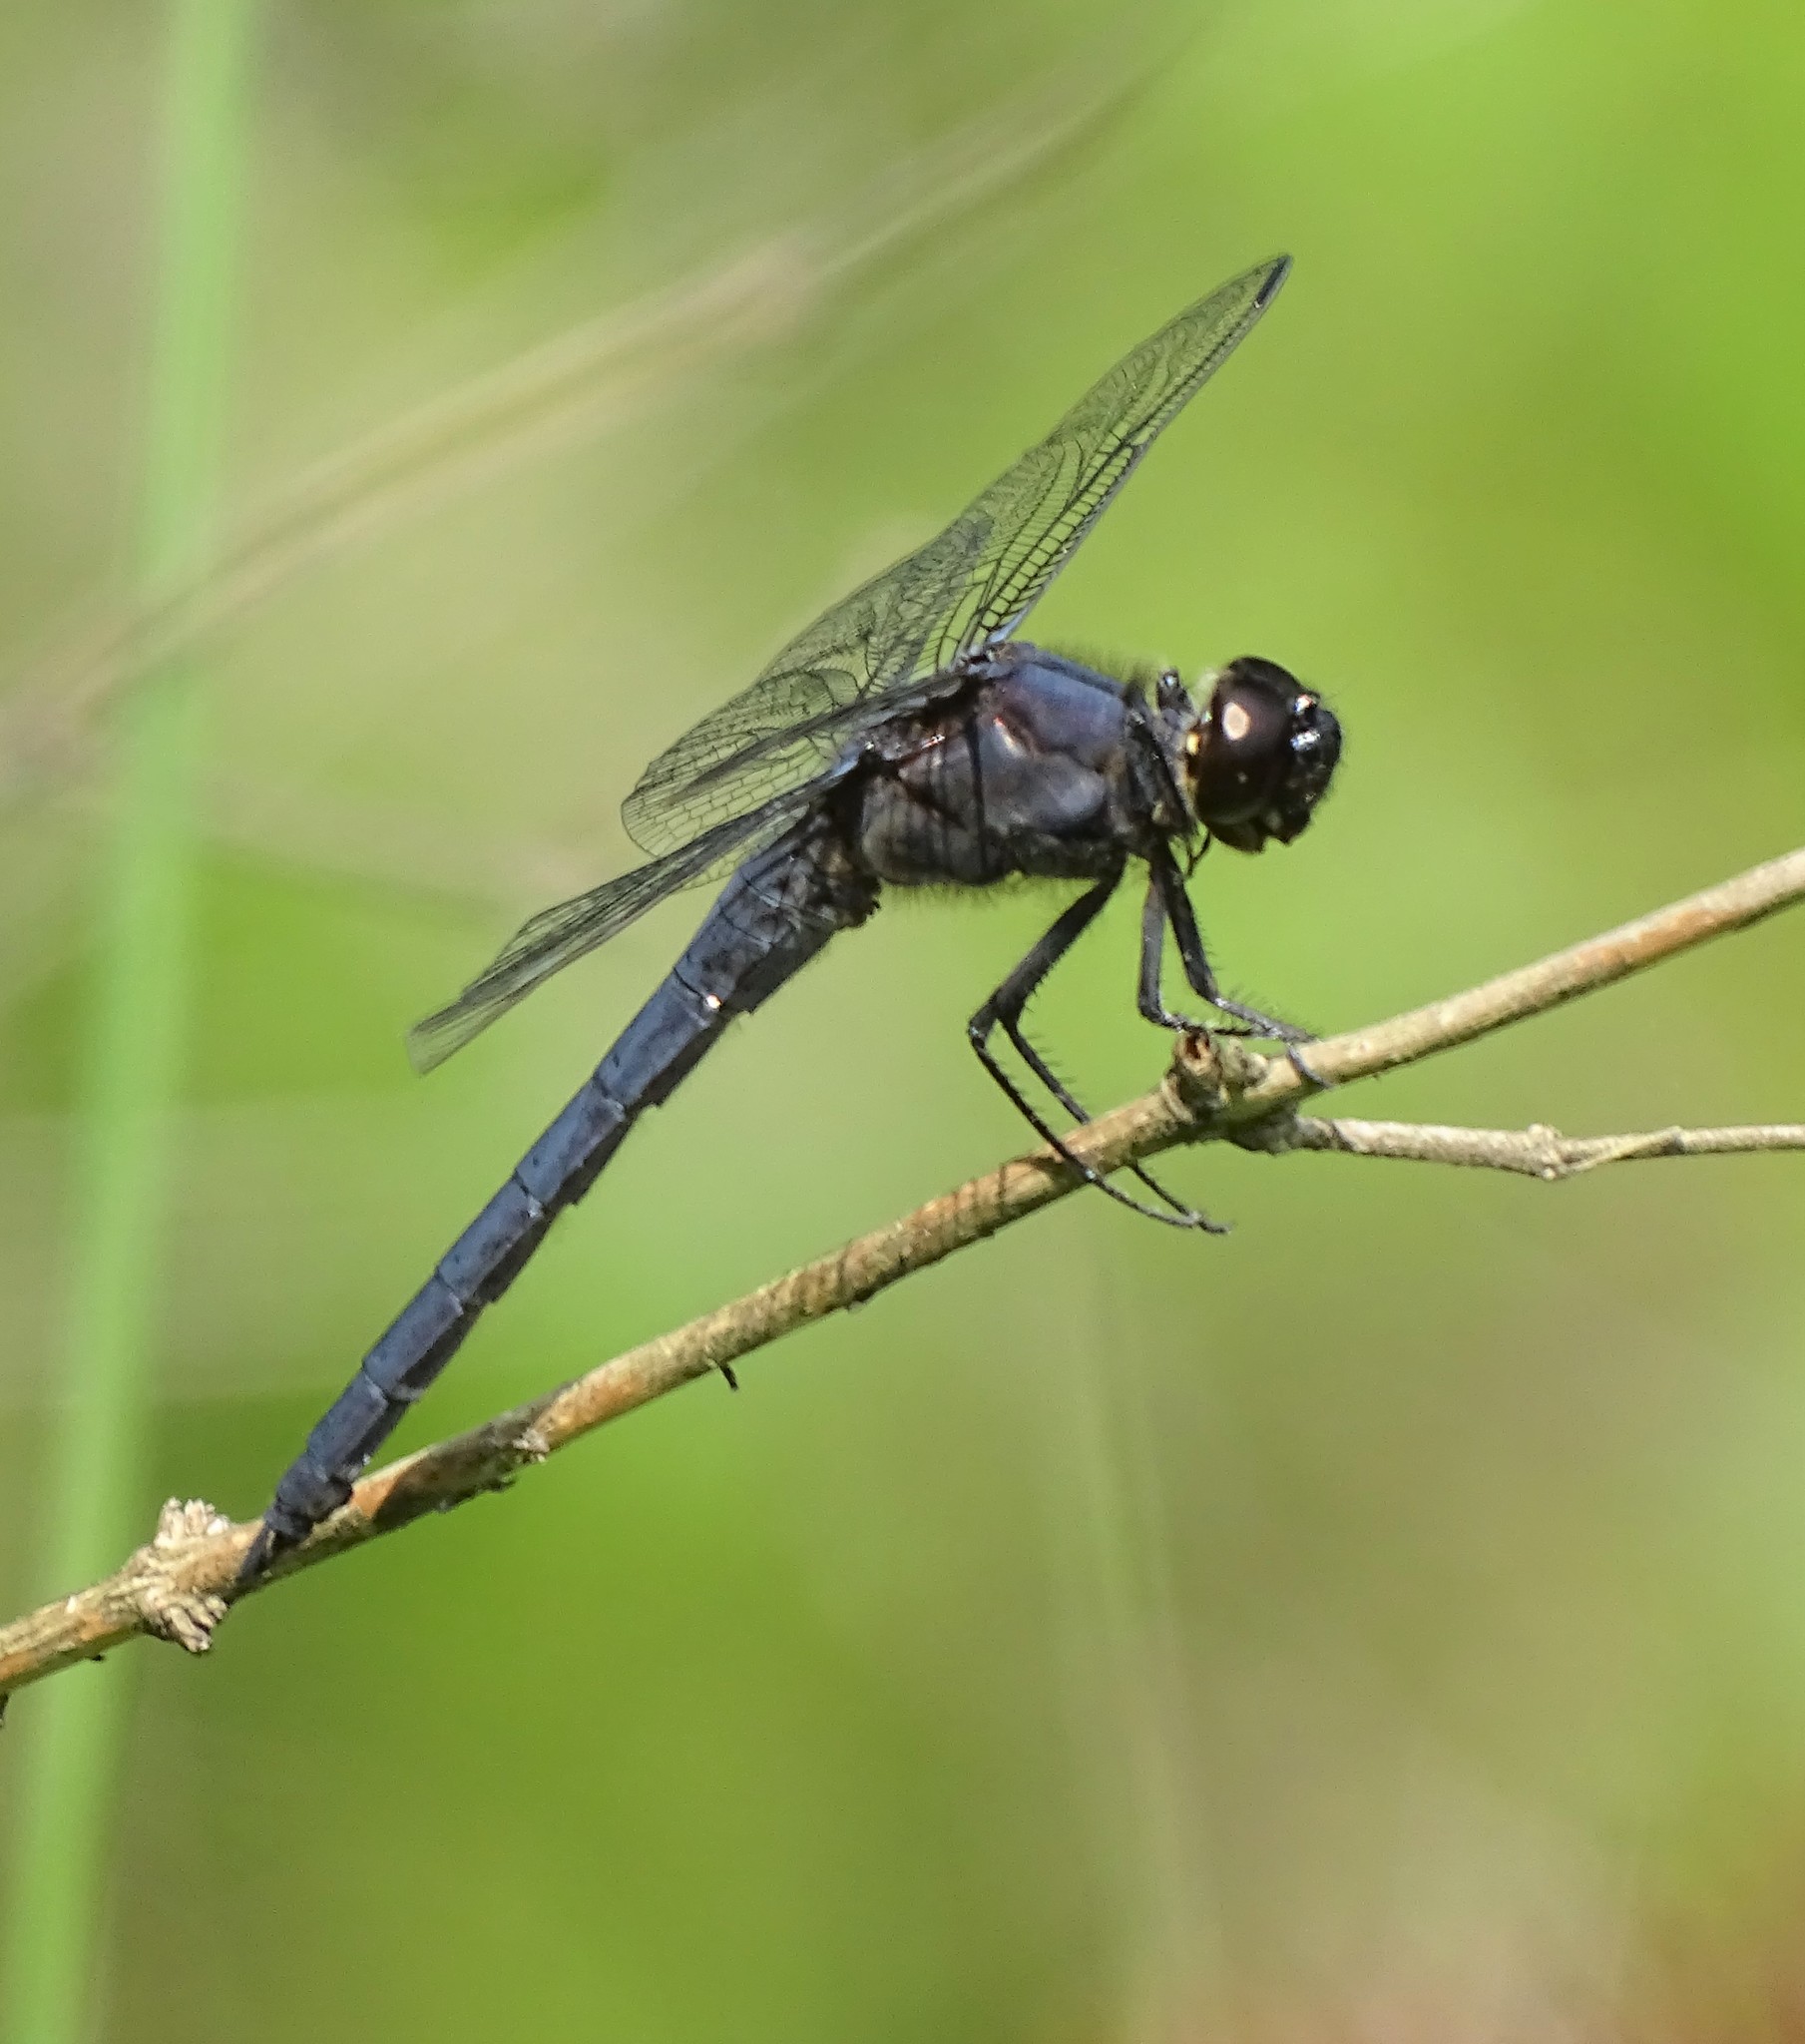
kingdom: Animalia
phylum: Arthropoda
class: Insecta
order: Odonata
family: Libellulidae
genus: Libellula
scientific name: Libellula incesta
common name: Slaty skimmer
